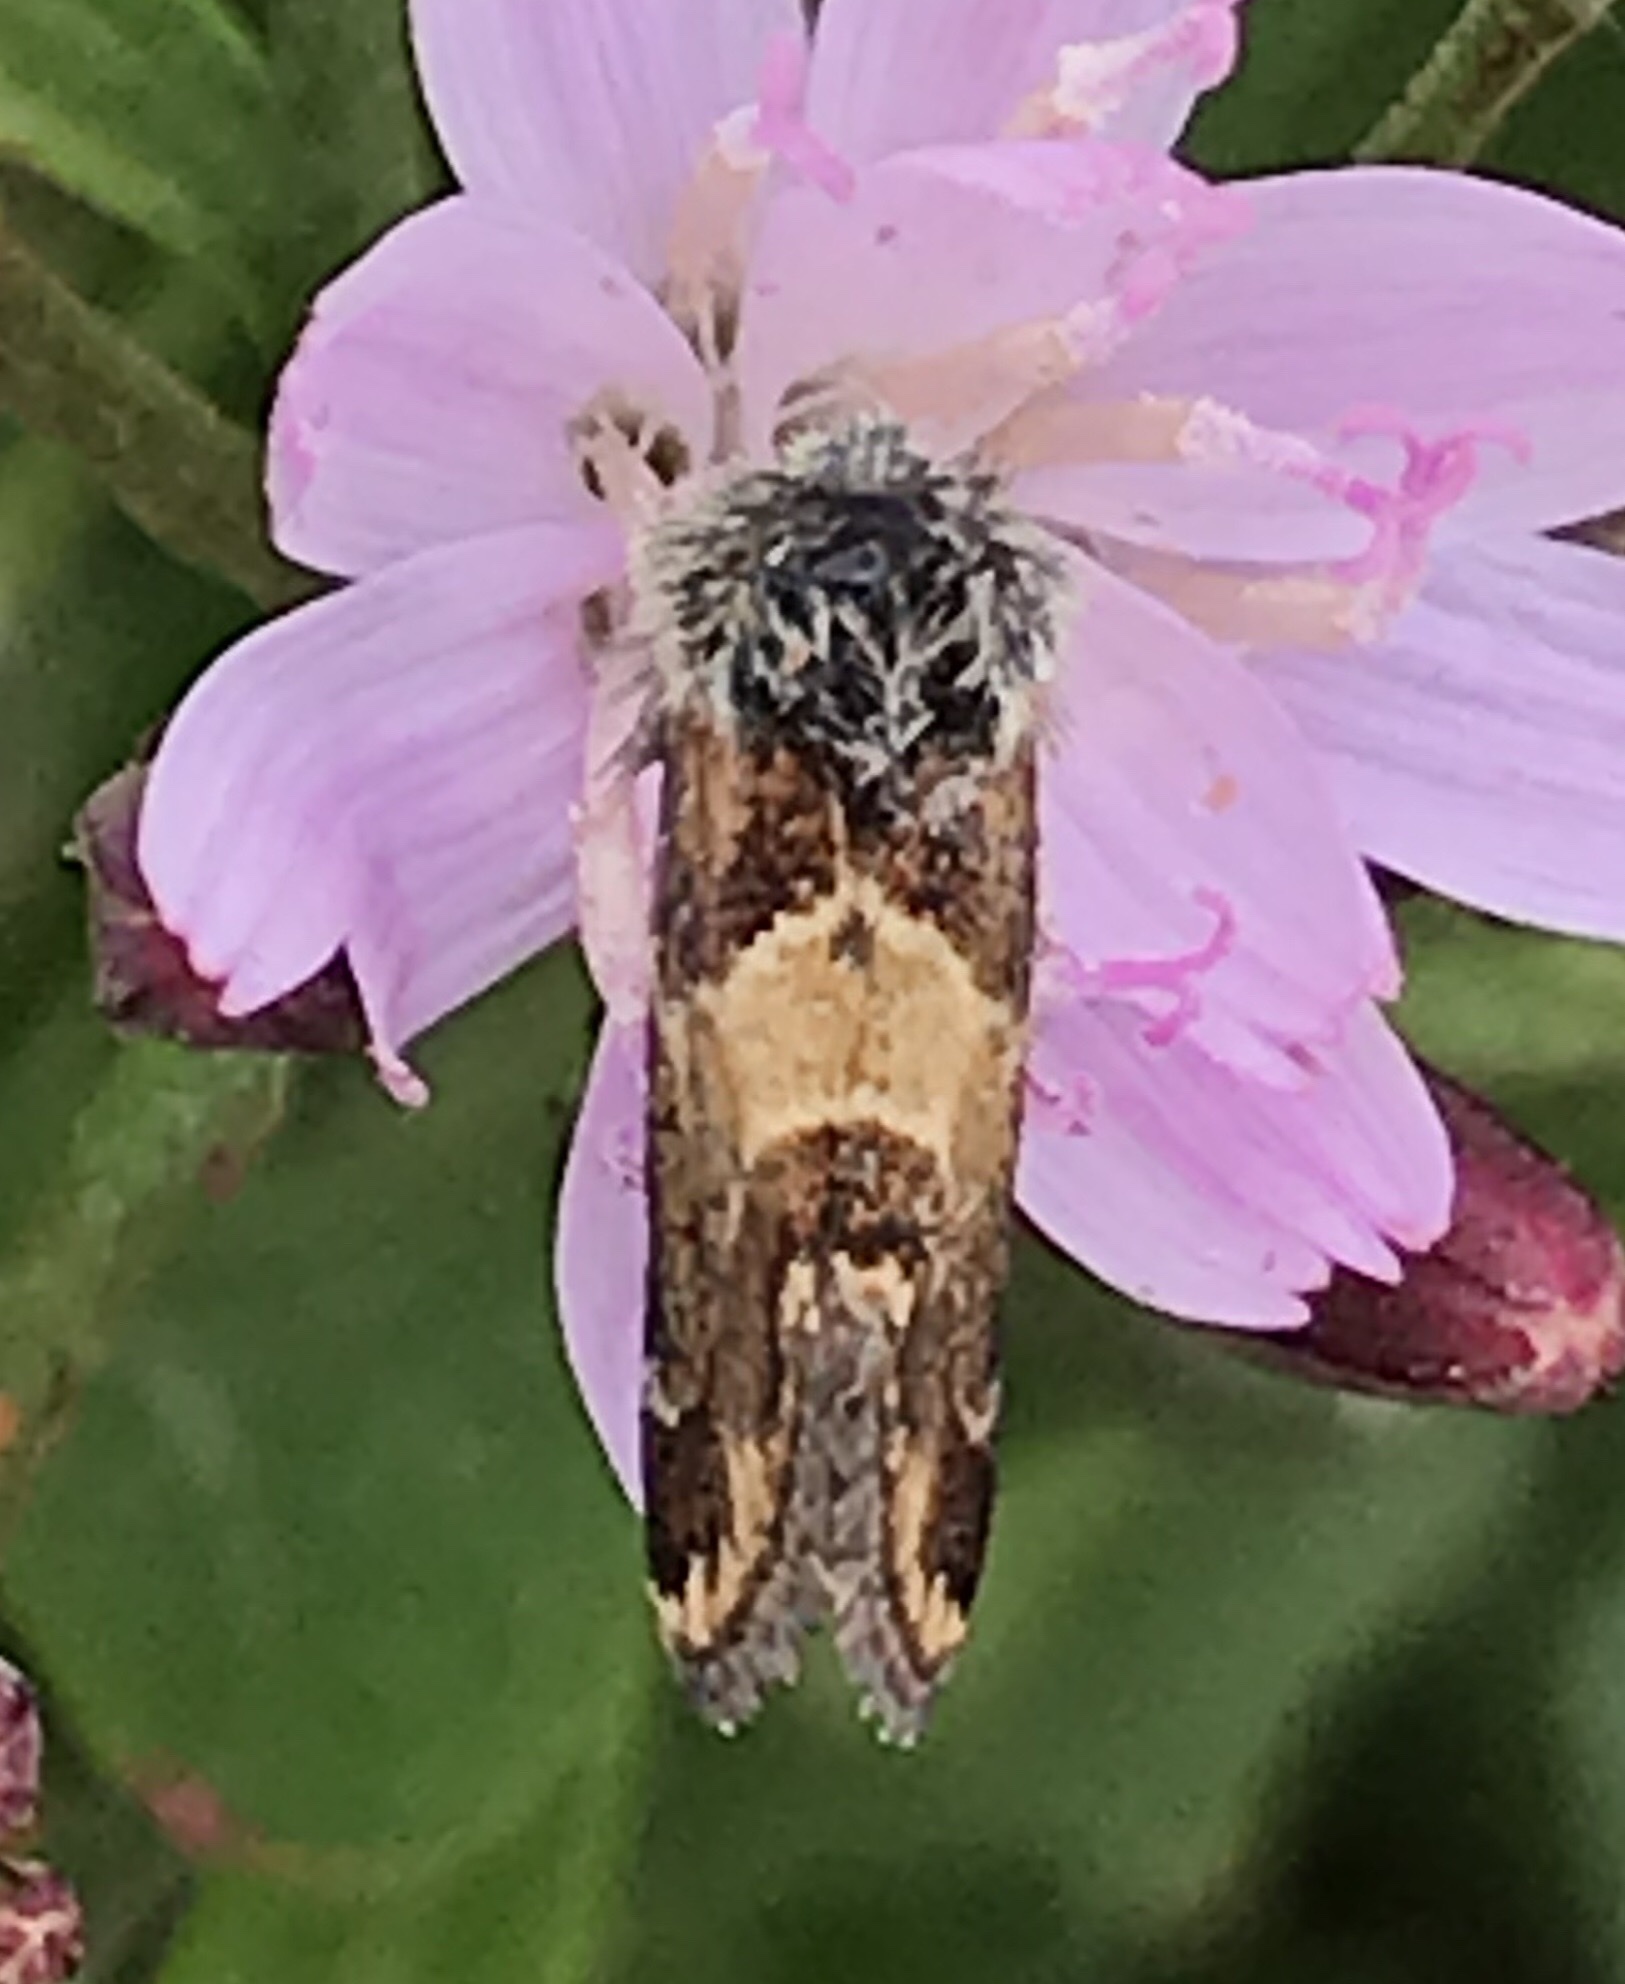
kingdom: Animalia
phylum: Arthropoda
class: Insecta
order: Lepidoptera
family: Noctuidae
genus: Schinia
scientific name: Schinia scarletina
